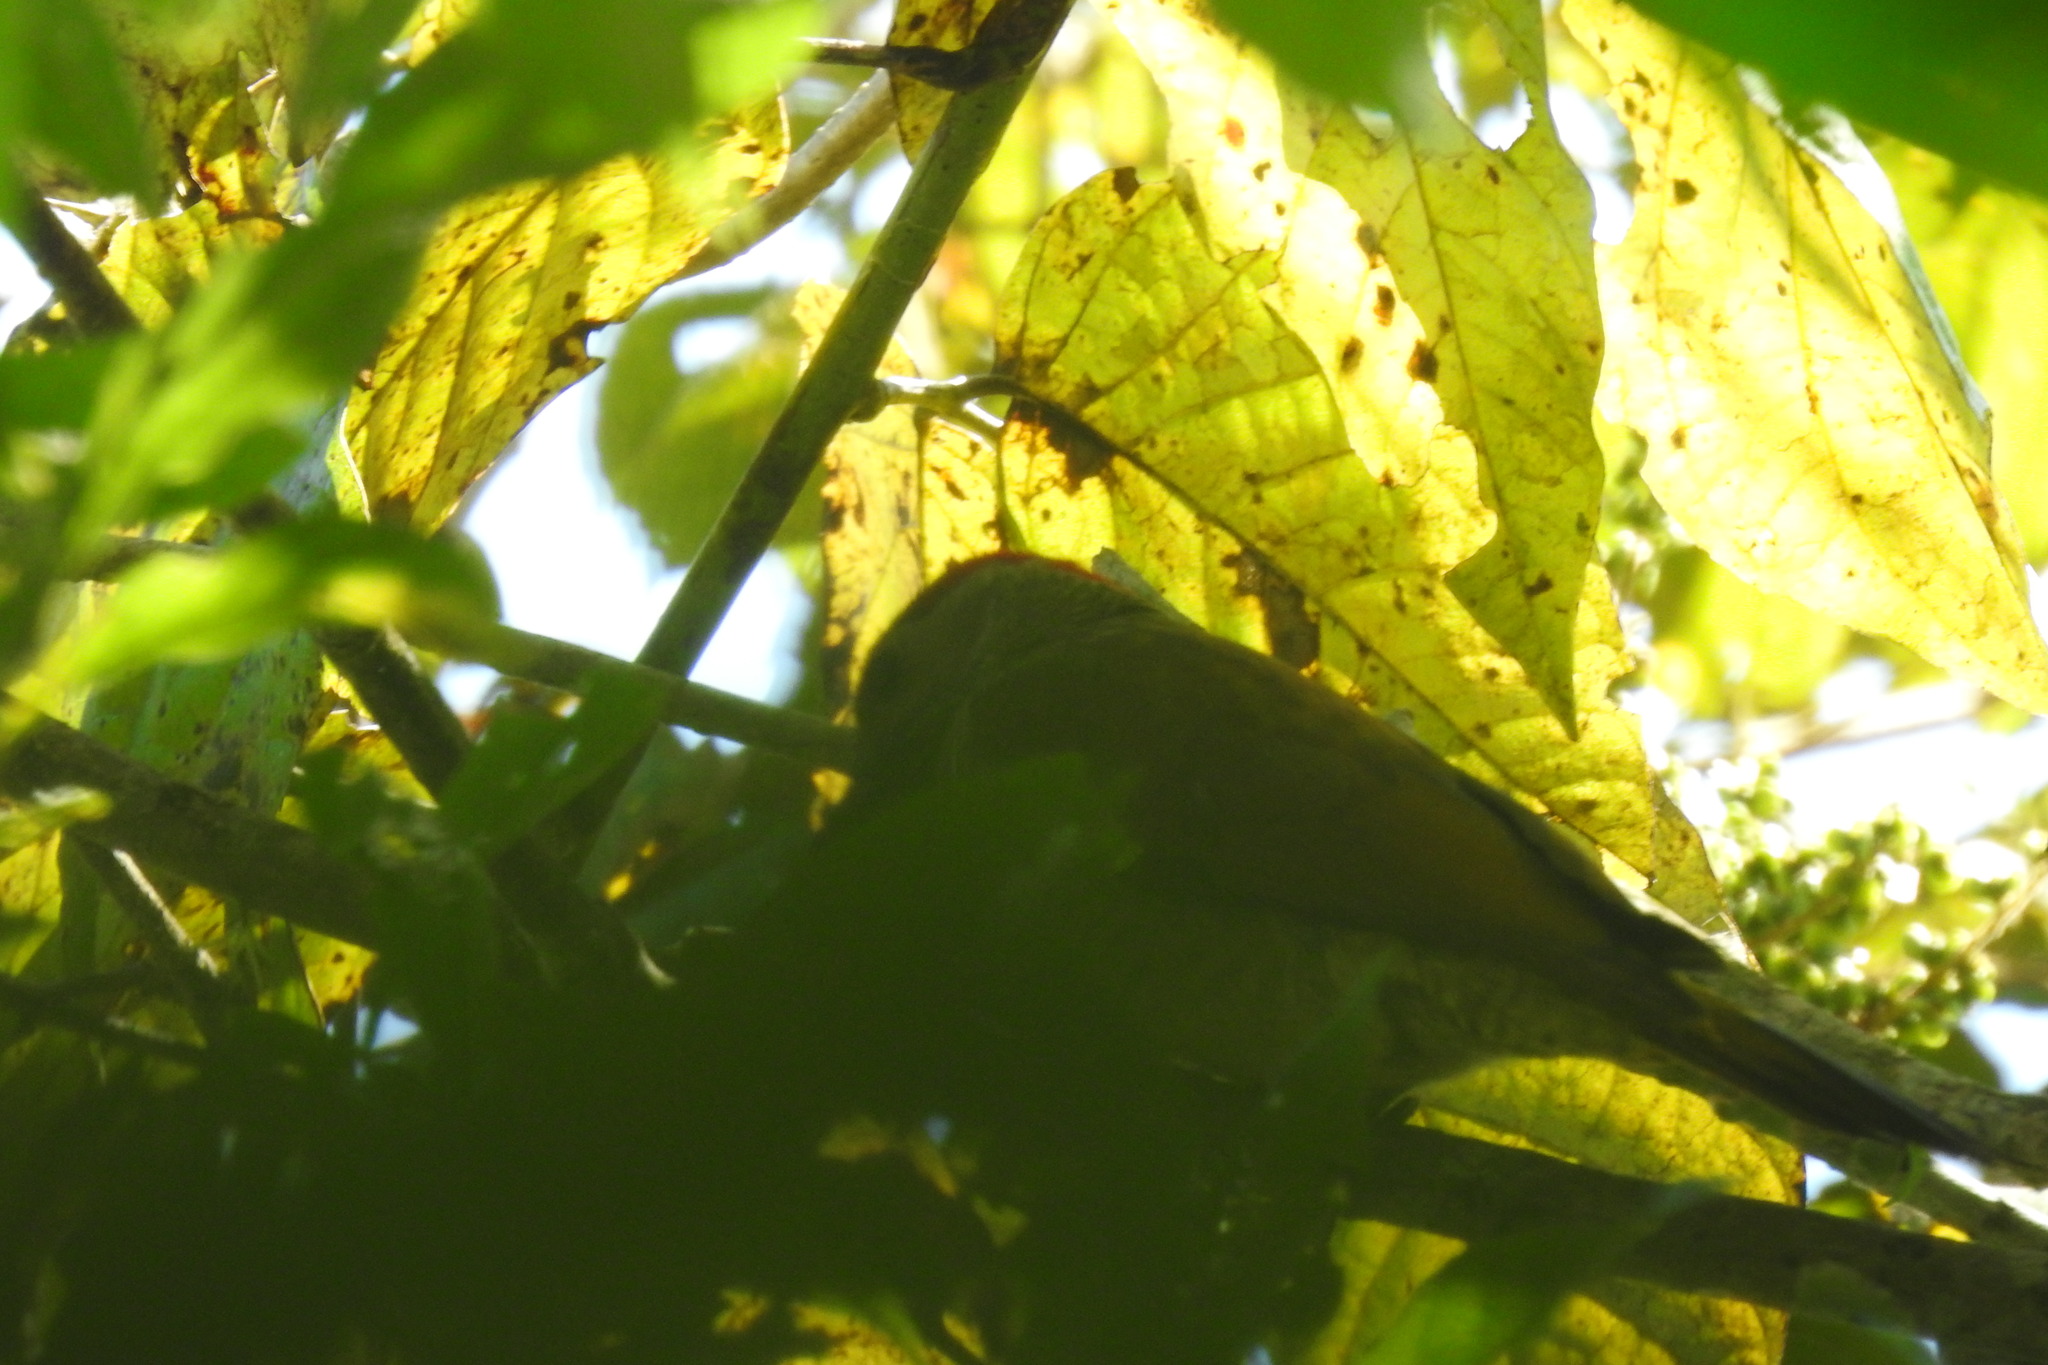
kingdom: Animalia
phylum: Chordata
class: Aves
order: Piciformes
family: Picidae
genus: Colaptes
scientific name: Colaptes rubiginosus
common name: Golden-olive woodpecker
